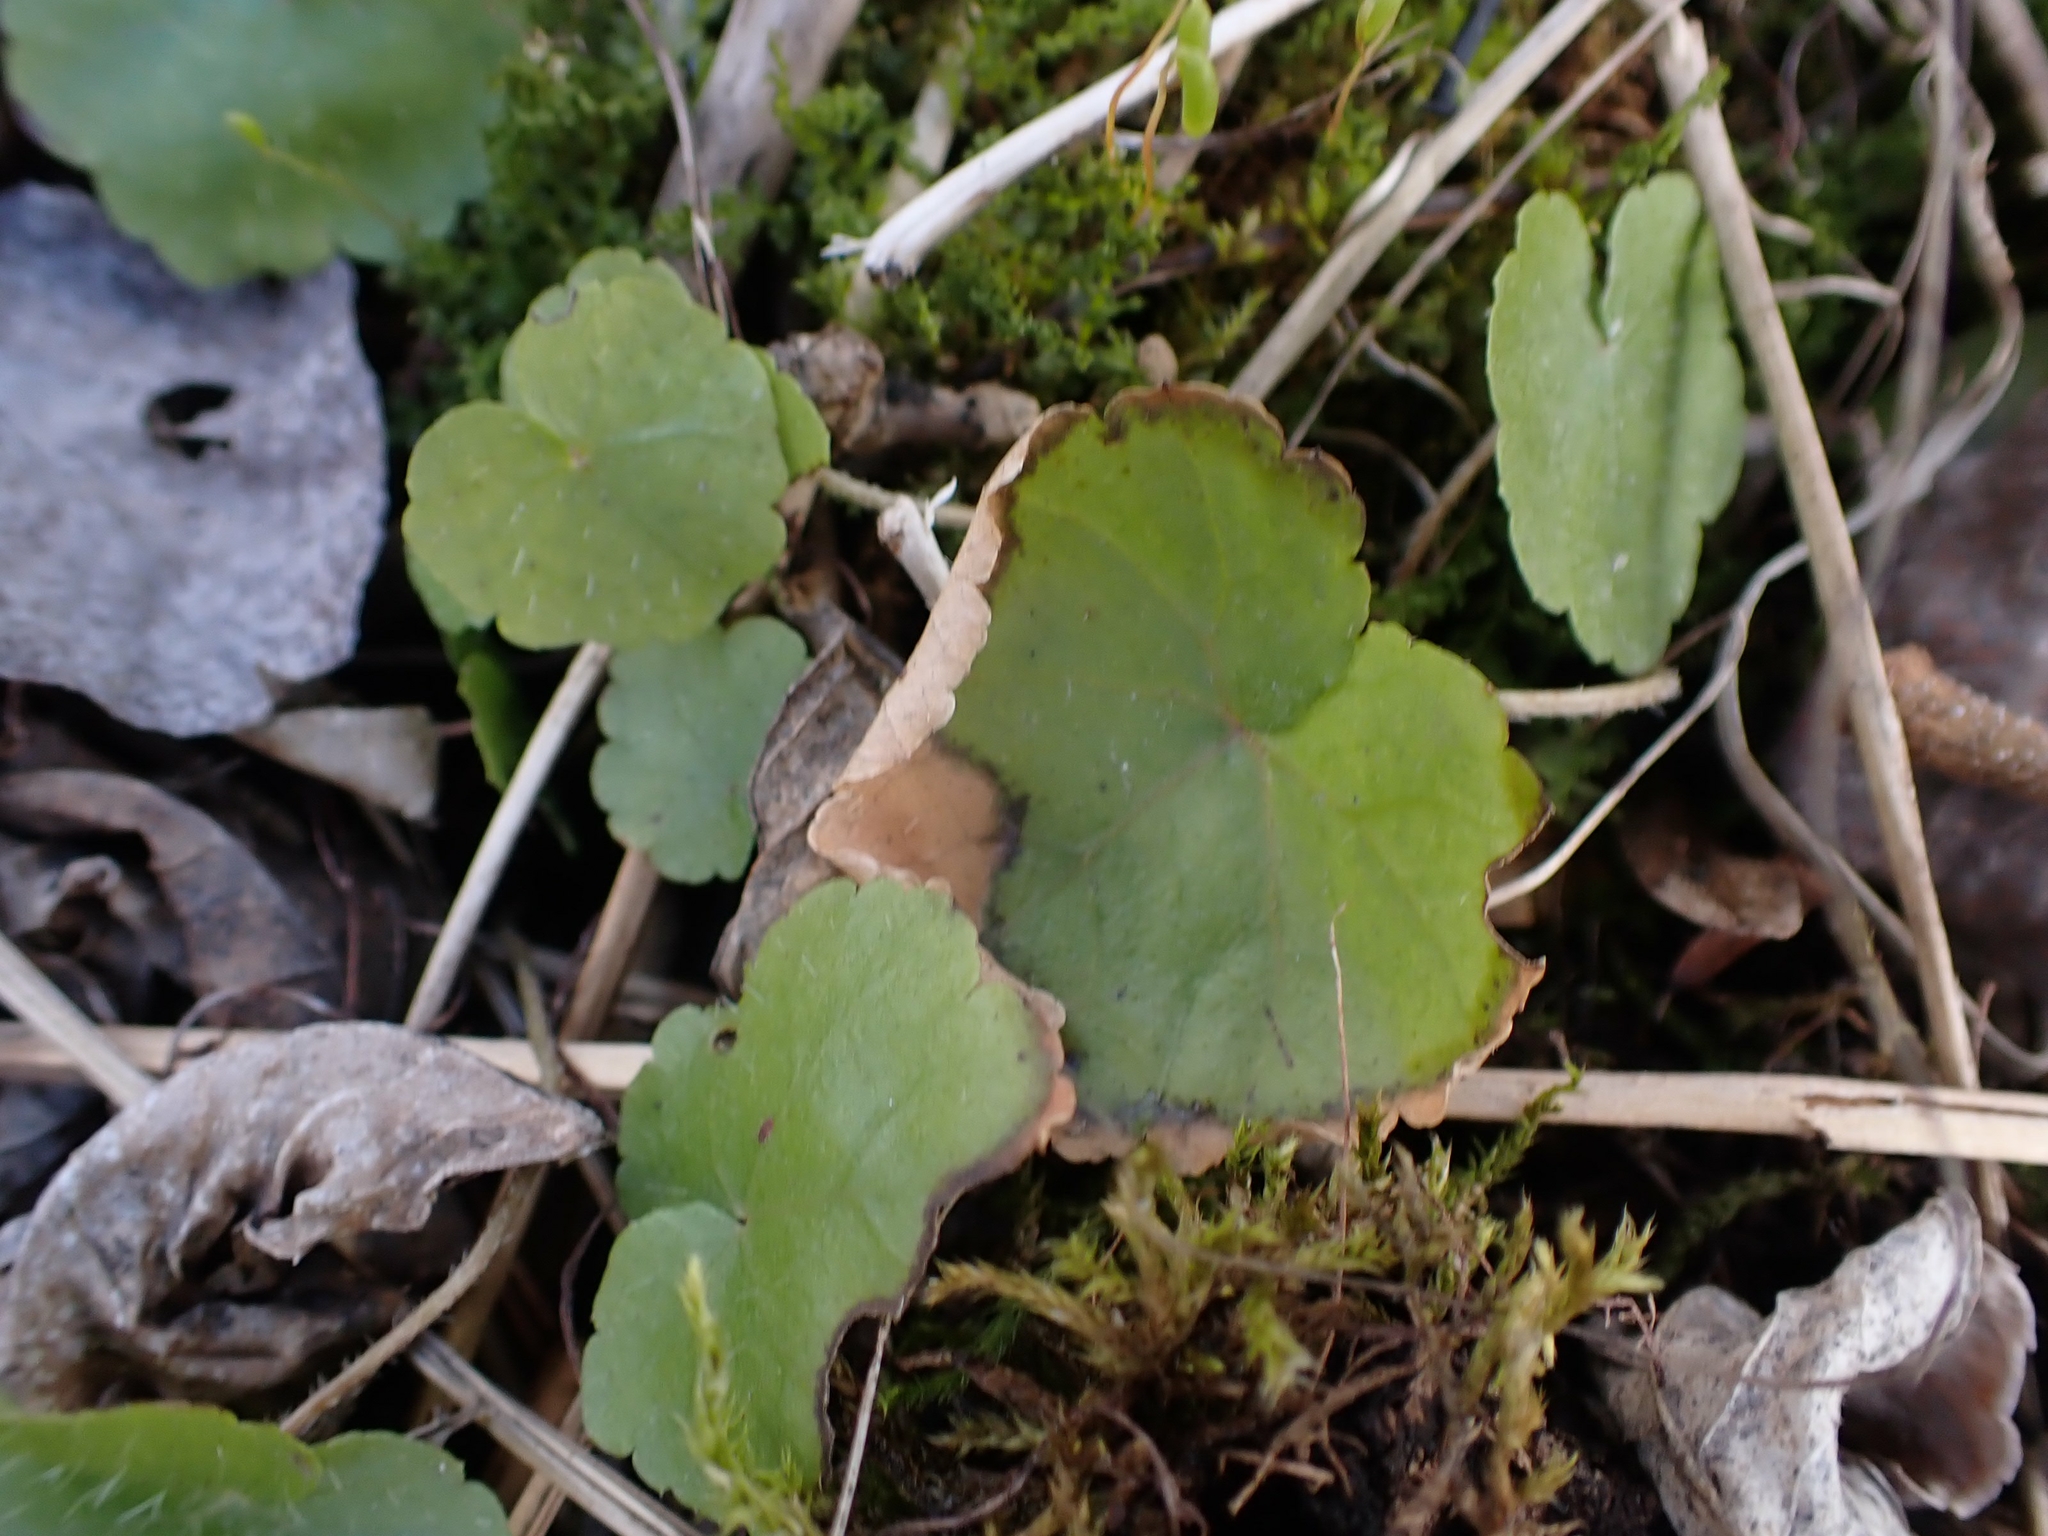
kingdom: Plantae
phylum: Tracheophyta
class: Magnoliopsida
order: Saxifragales
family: Saxifragaceae
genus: Mitella
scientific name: Mitella nuda
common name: Bare-stemmed bishop's-cap
